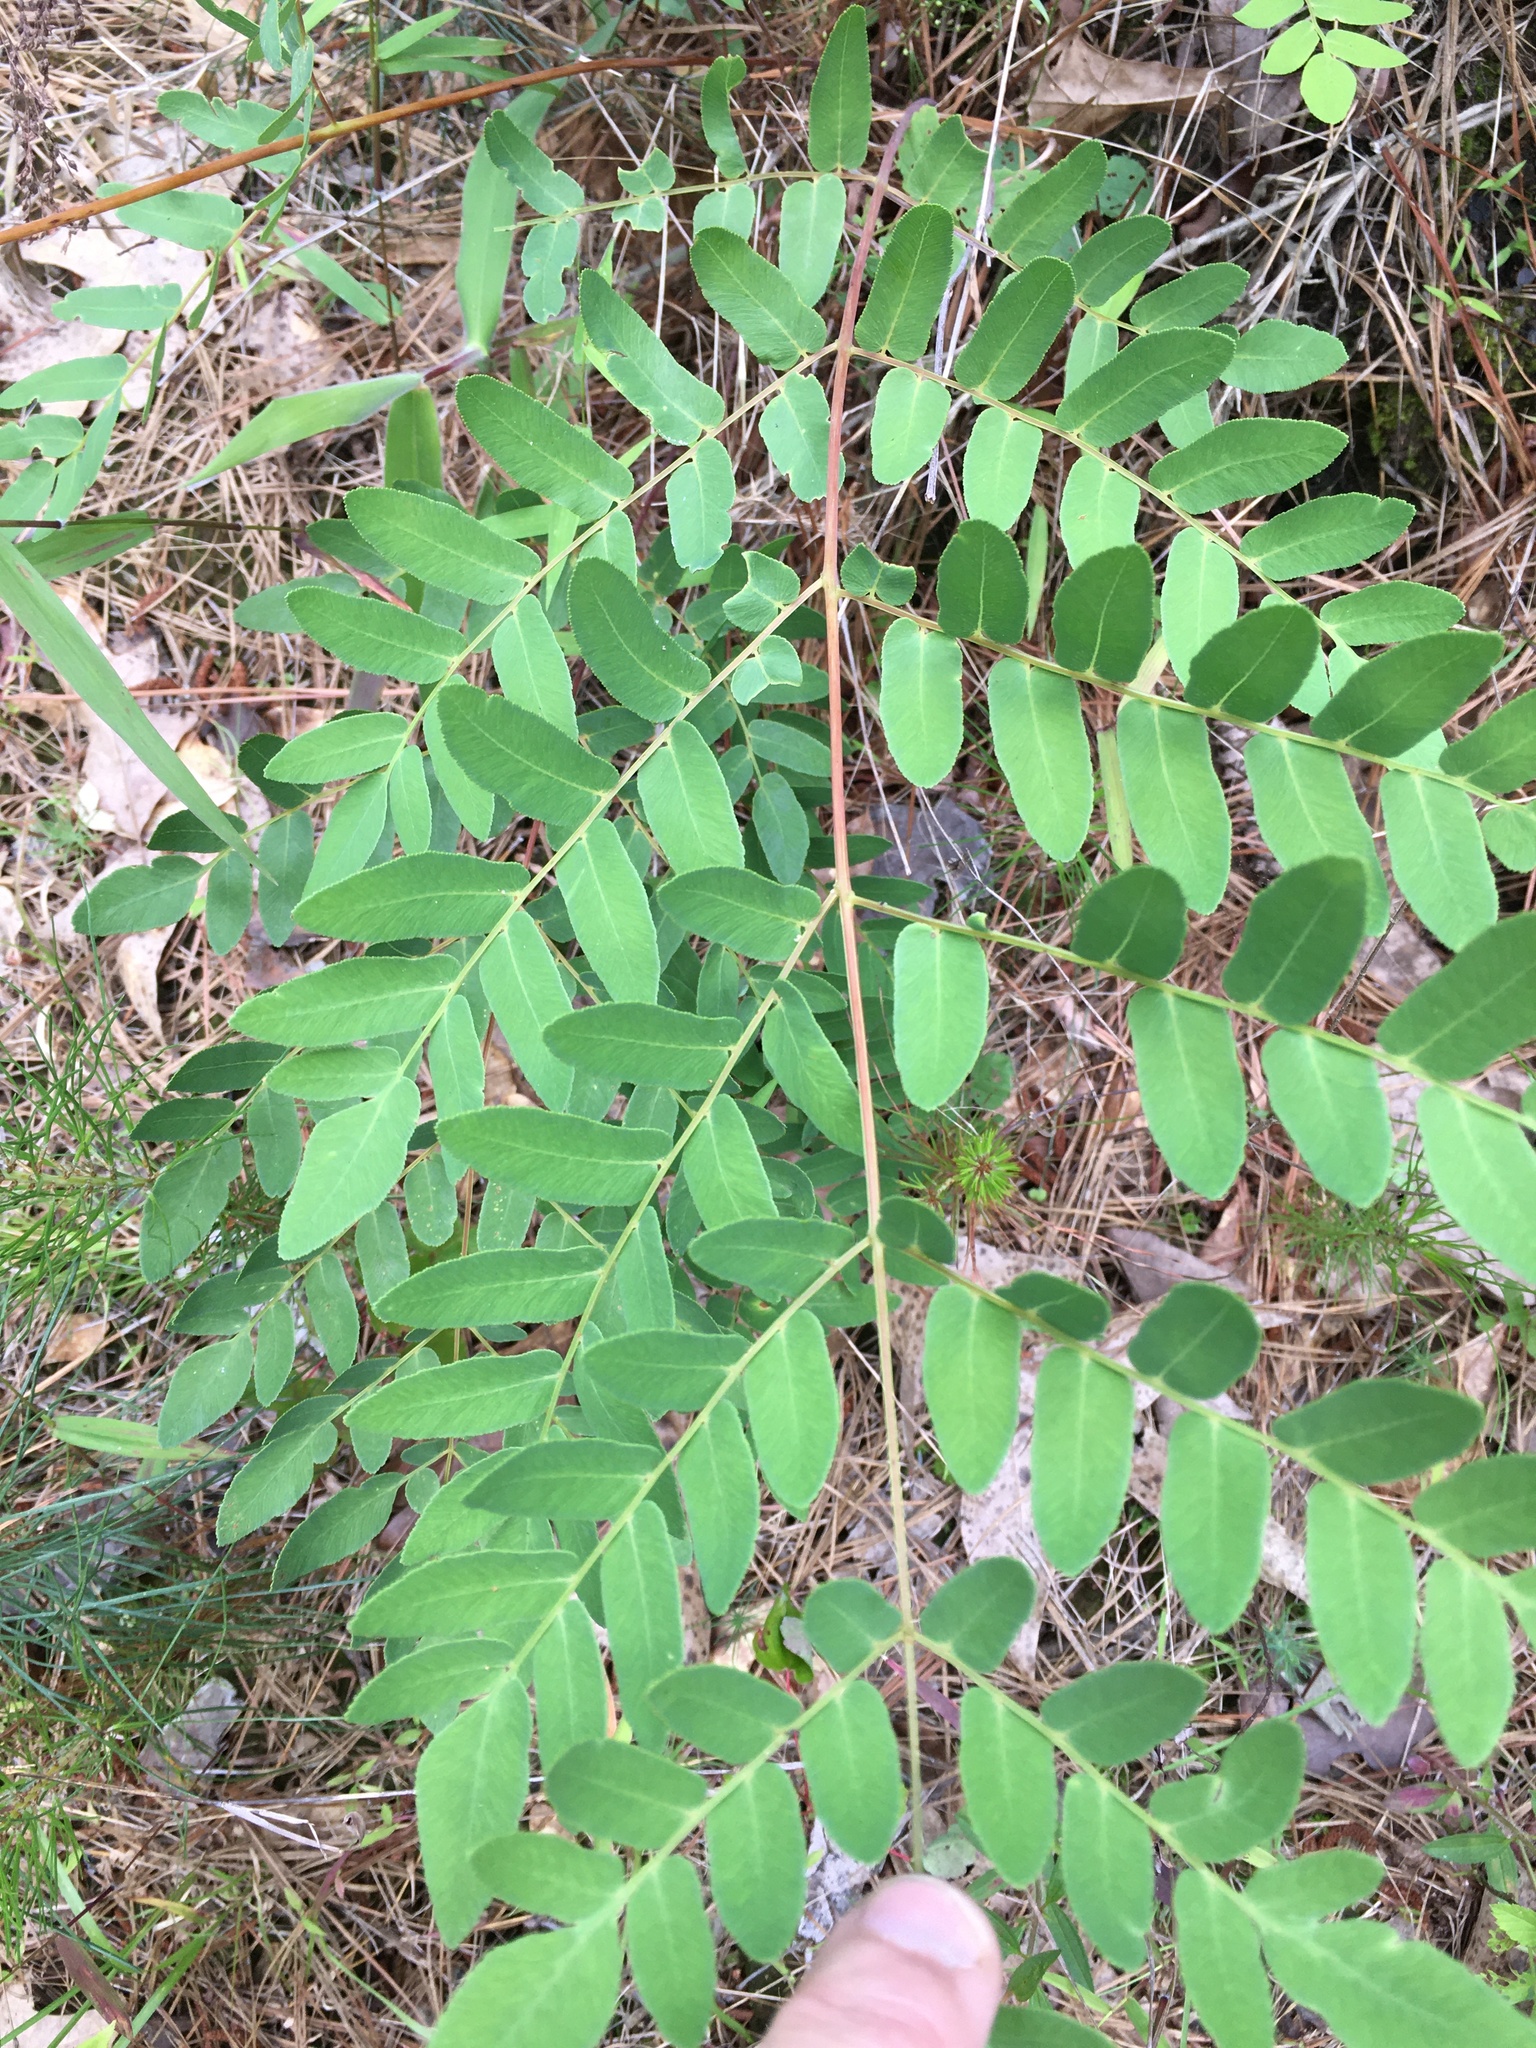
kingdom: Plantae
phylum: Tracheophyta
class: Polypodiopsida
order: Osmundales
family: Osmundaceae
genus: Osmunda
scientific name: Osmunda spectabilis
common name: American royal fern
